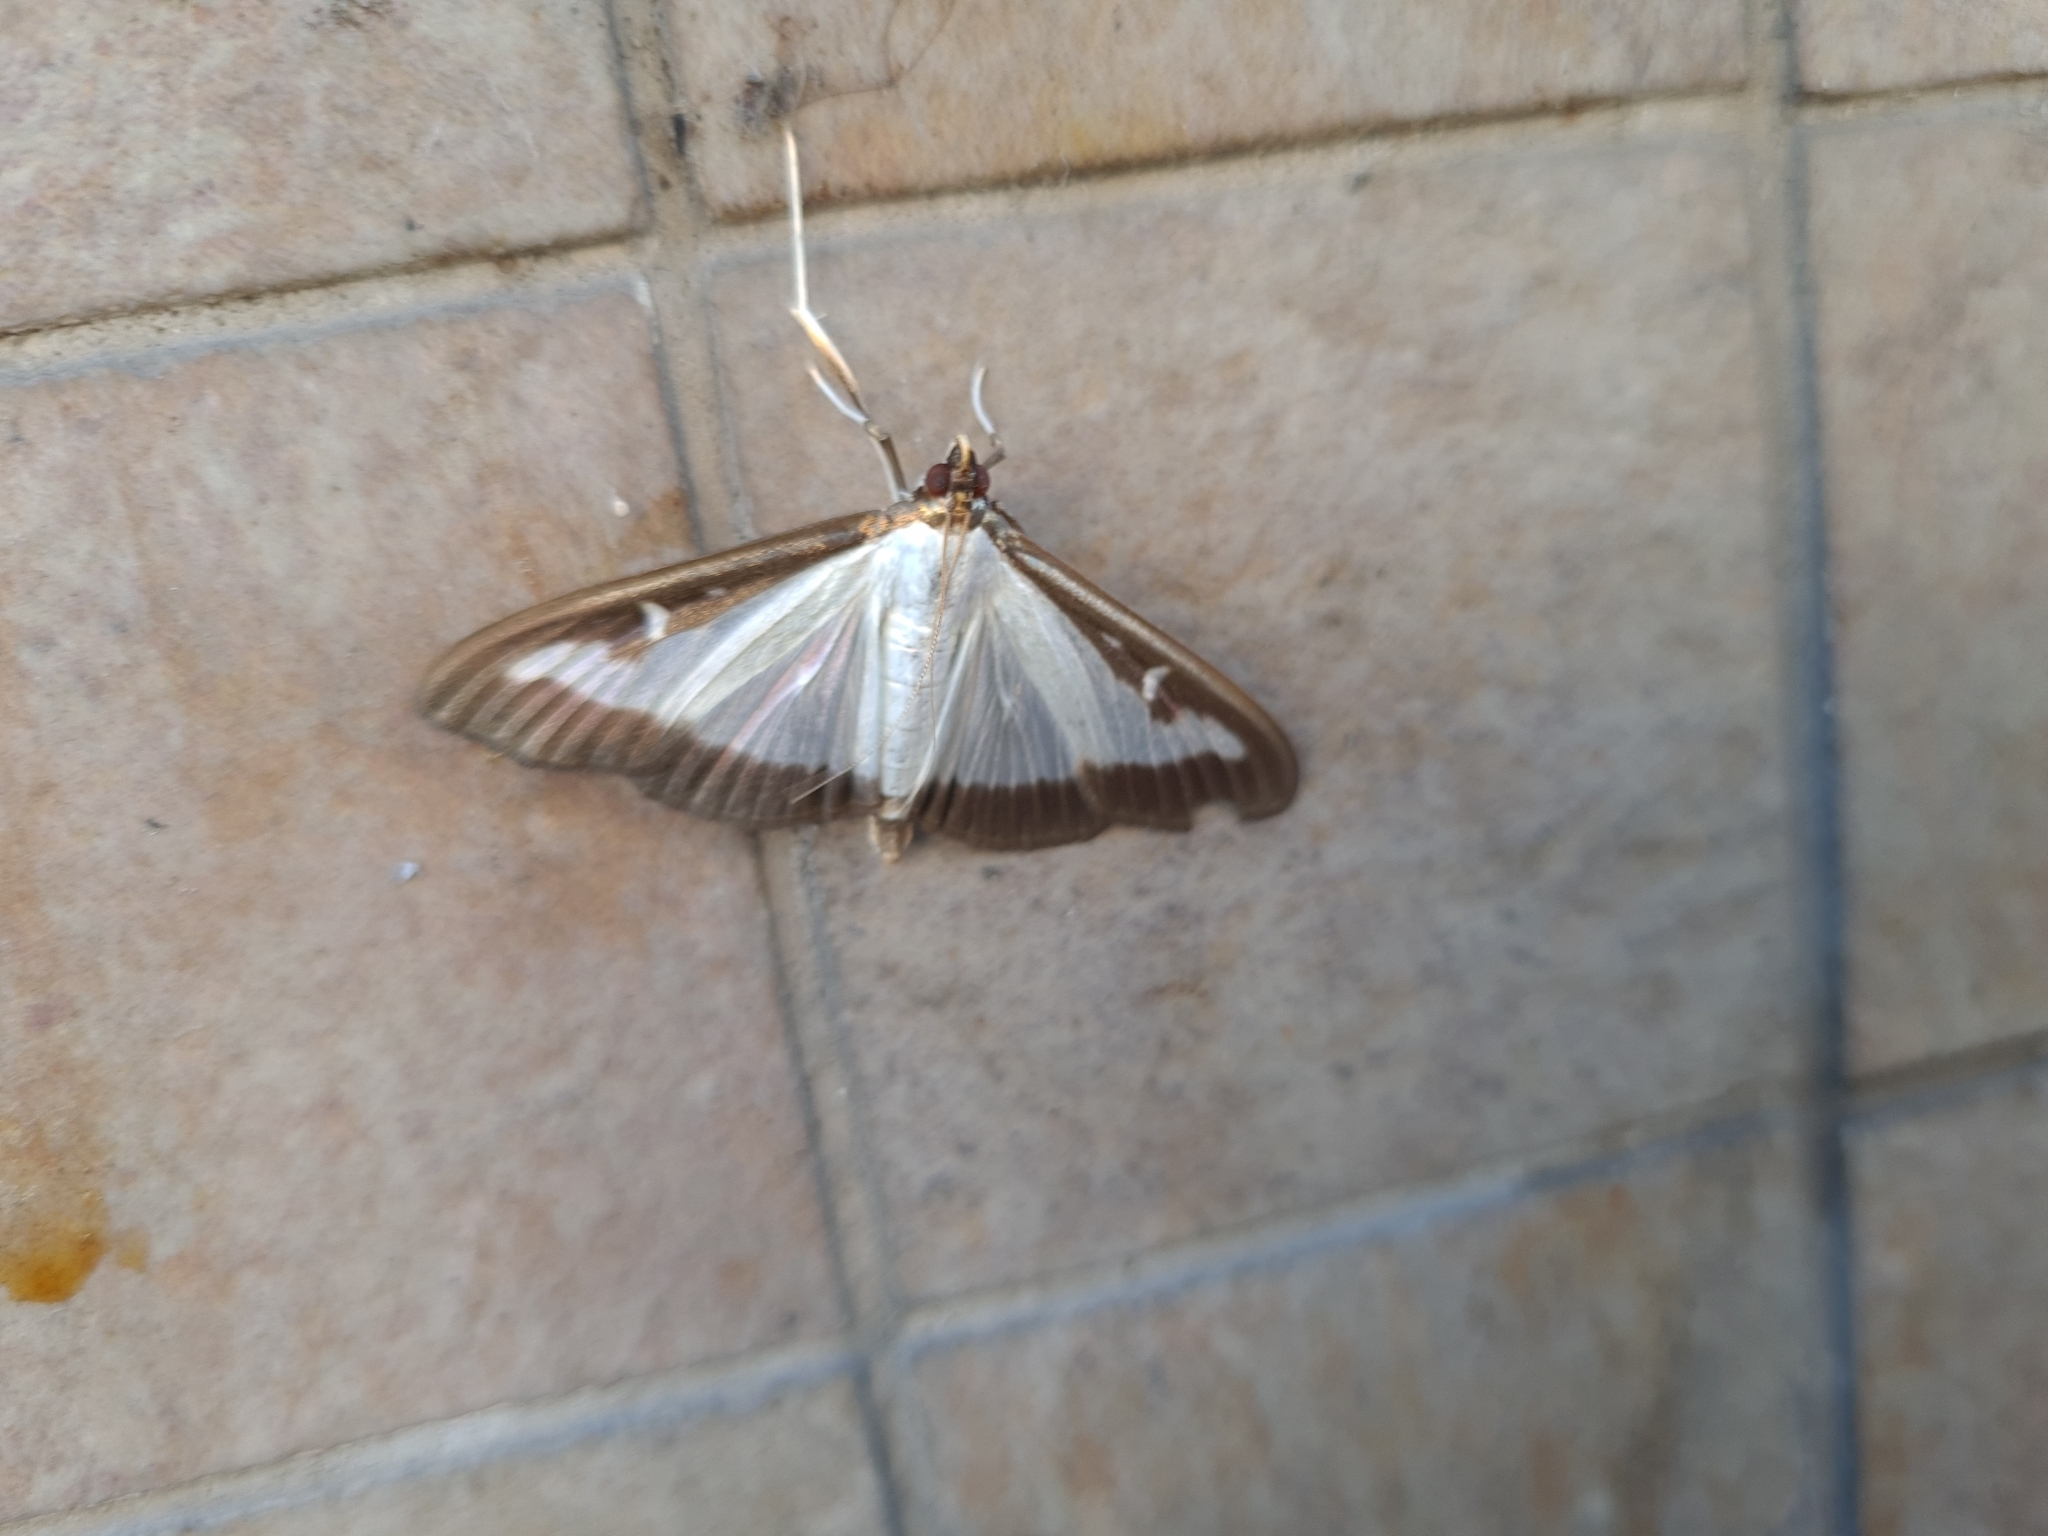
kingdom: Animalia
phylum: Arthropoda
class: Insecta
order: Lepidoptera
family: Crambidae
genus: Cydalima
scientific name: Cydalima perspectalis
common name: Box tree moth
